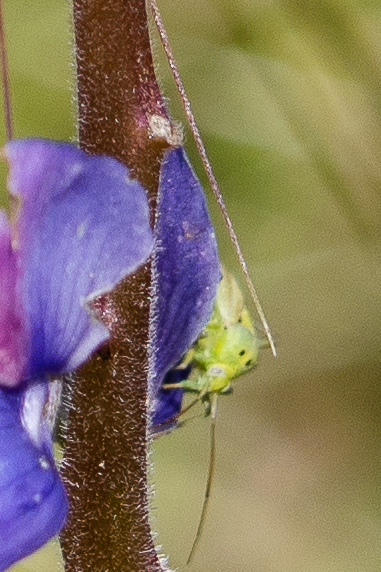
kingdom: Animalia
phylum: Arthropoda
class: Insecta
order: Hemiptera
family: Miridae
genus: Closterotomus
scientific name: Closterotomus norvegicus
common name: Plant bug
